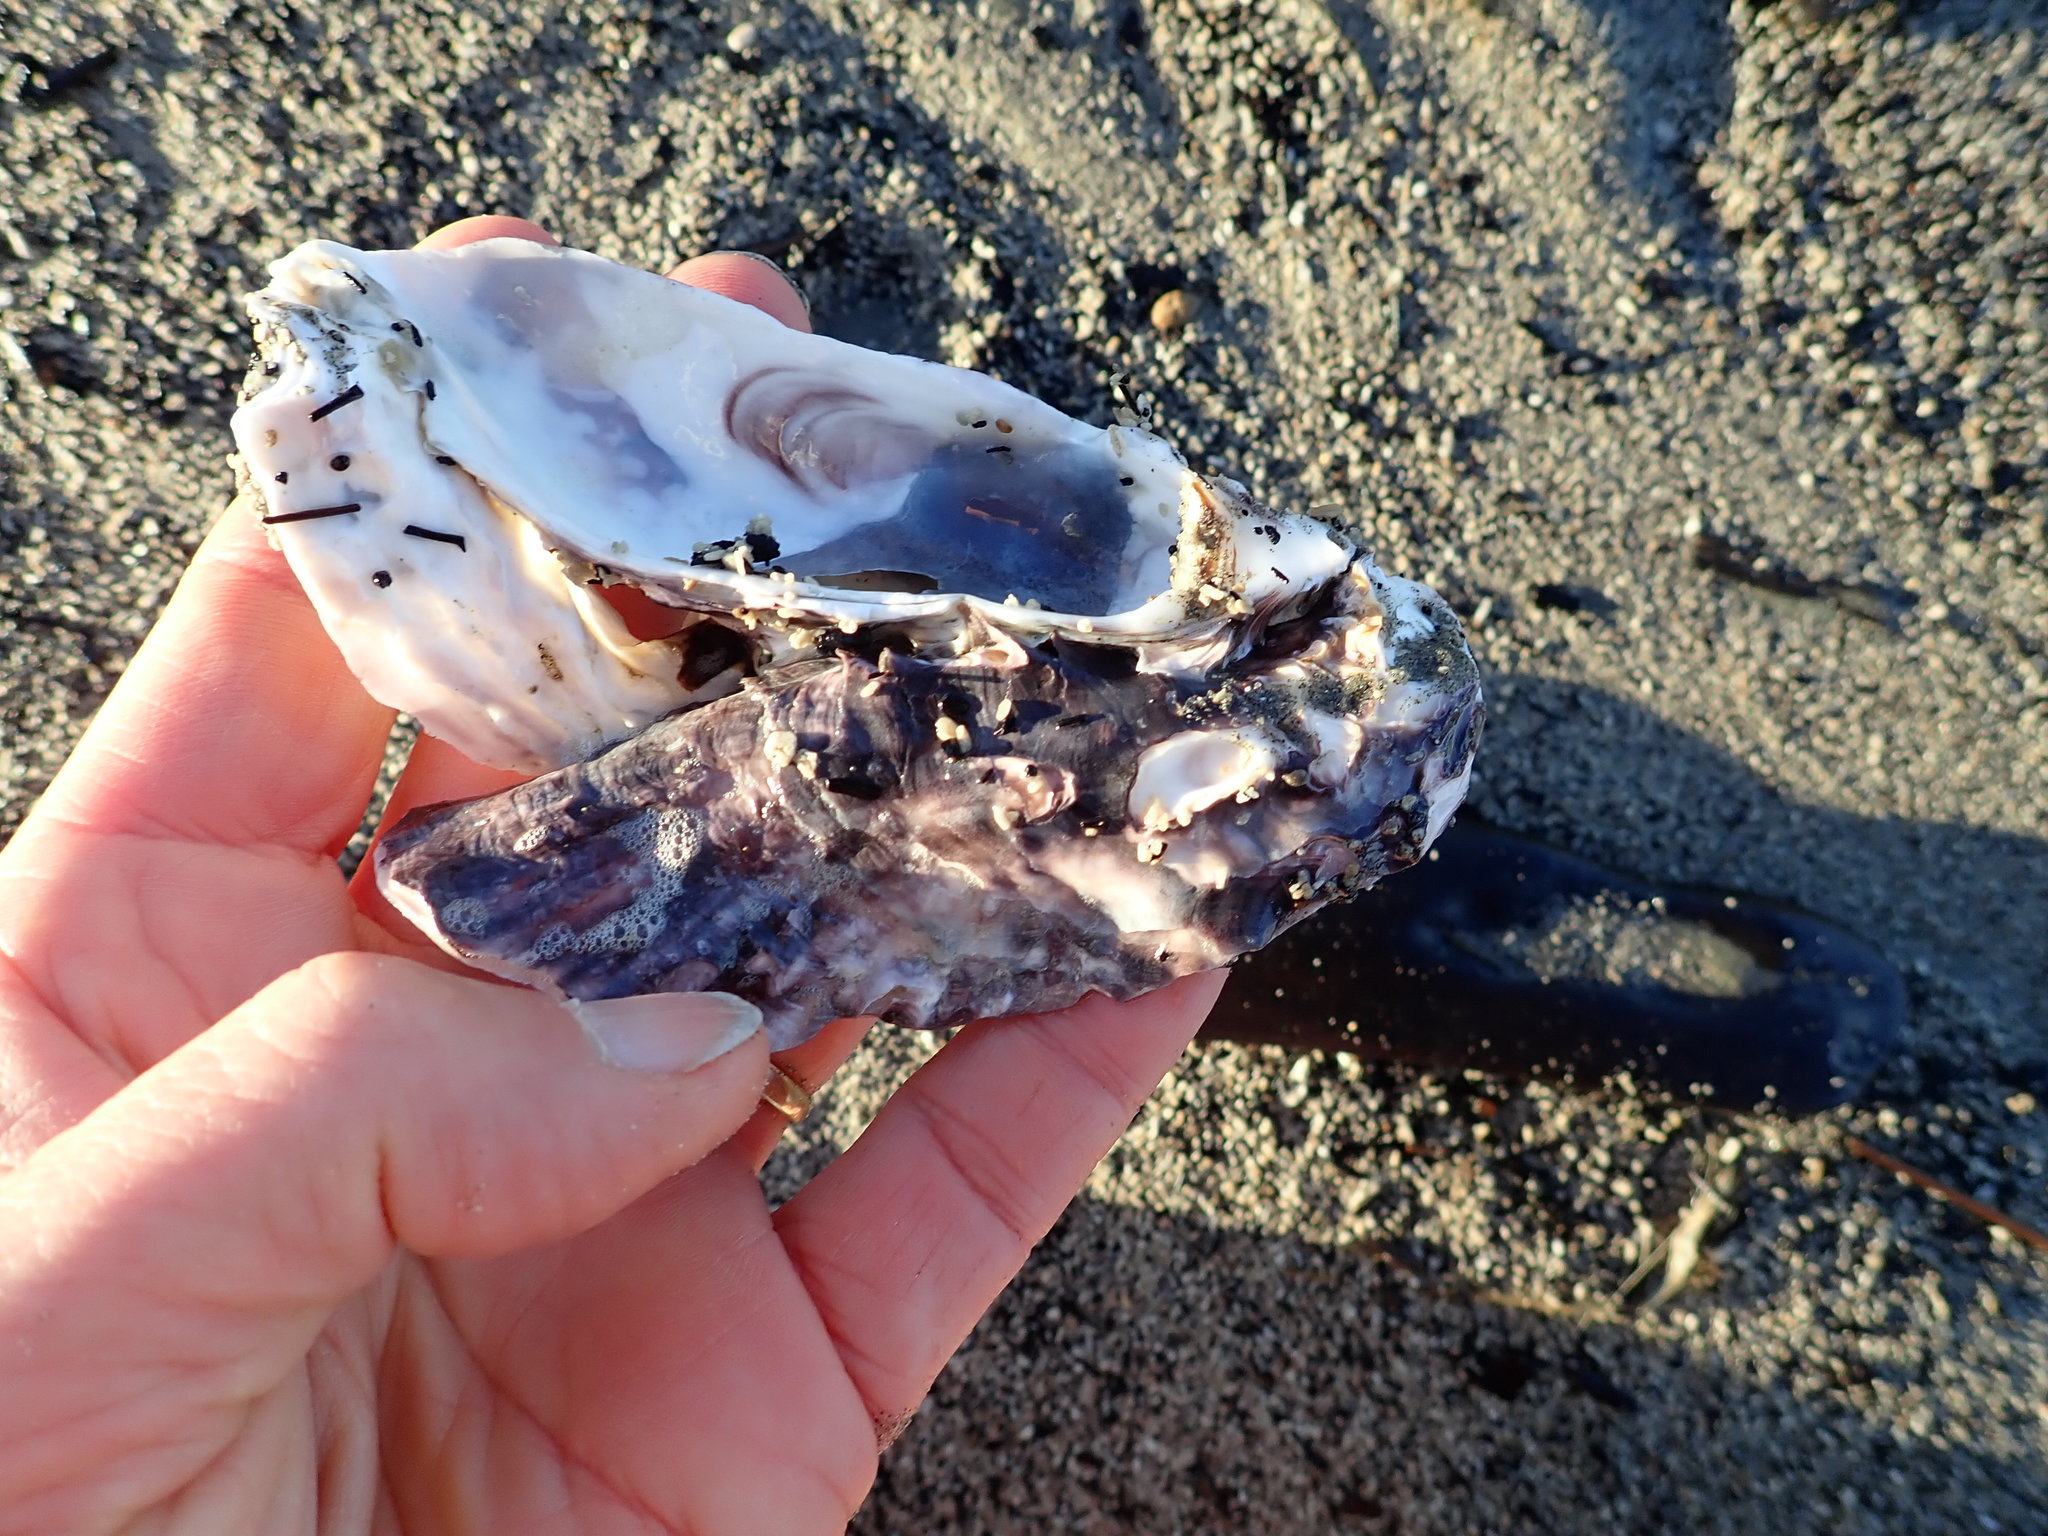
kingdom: Animalia
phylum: Mollusca
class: Bivalvia
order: Ostreida
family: Ostreidae
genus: Magallana
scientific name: Magallana gigas
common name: Pacific oyster
